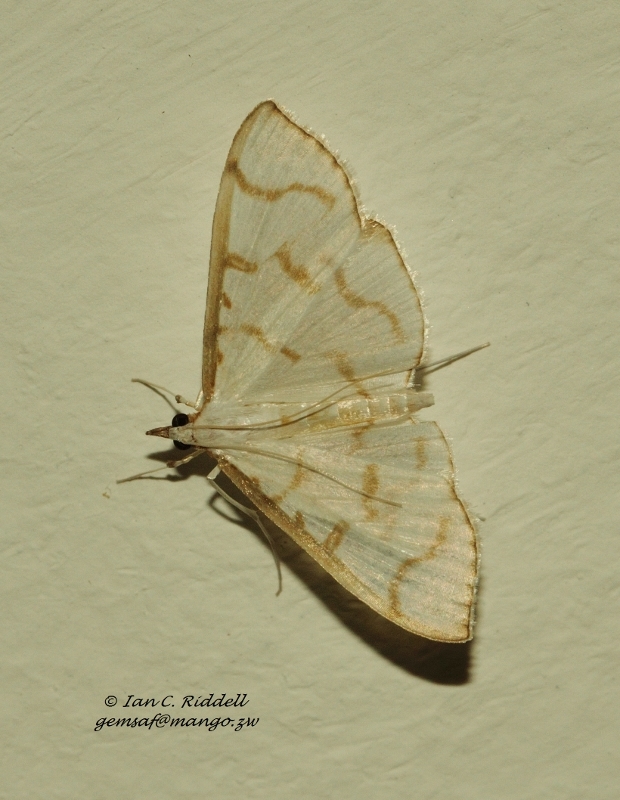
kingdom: Animalia
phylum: Arthropoda
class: Insecta
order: Lepidoptera
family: Crambidae
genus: Antigastra
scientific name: Antigastra morysalis
